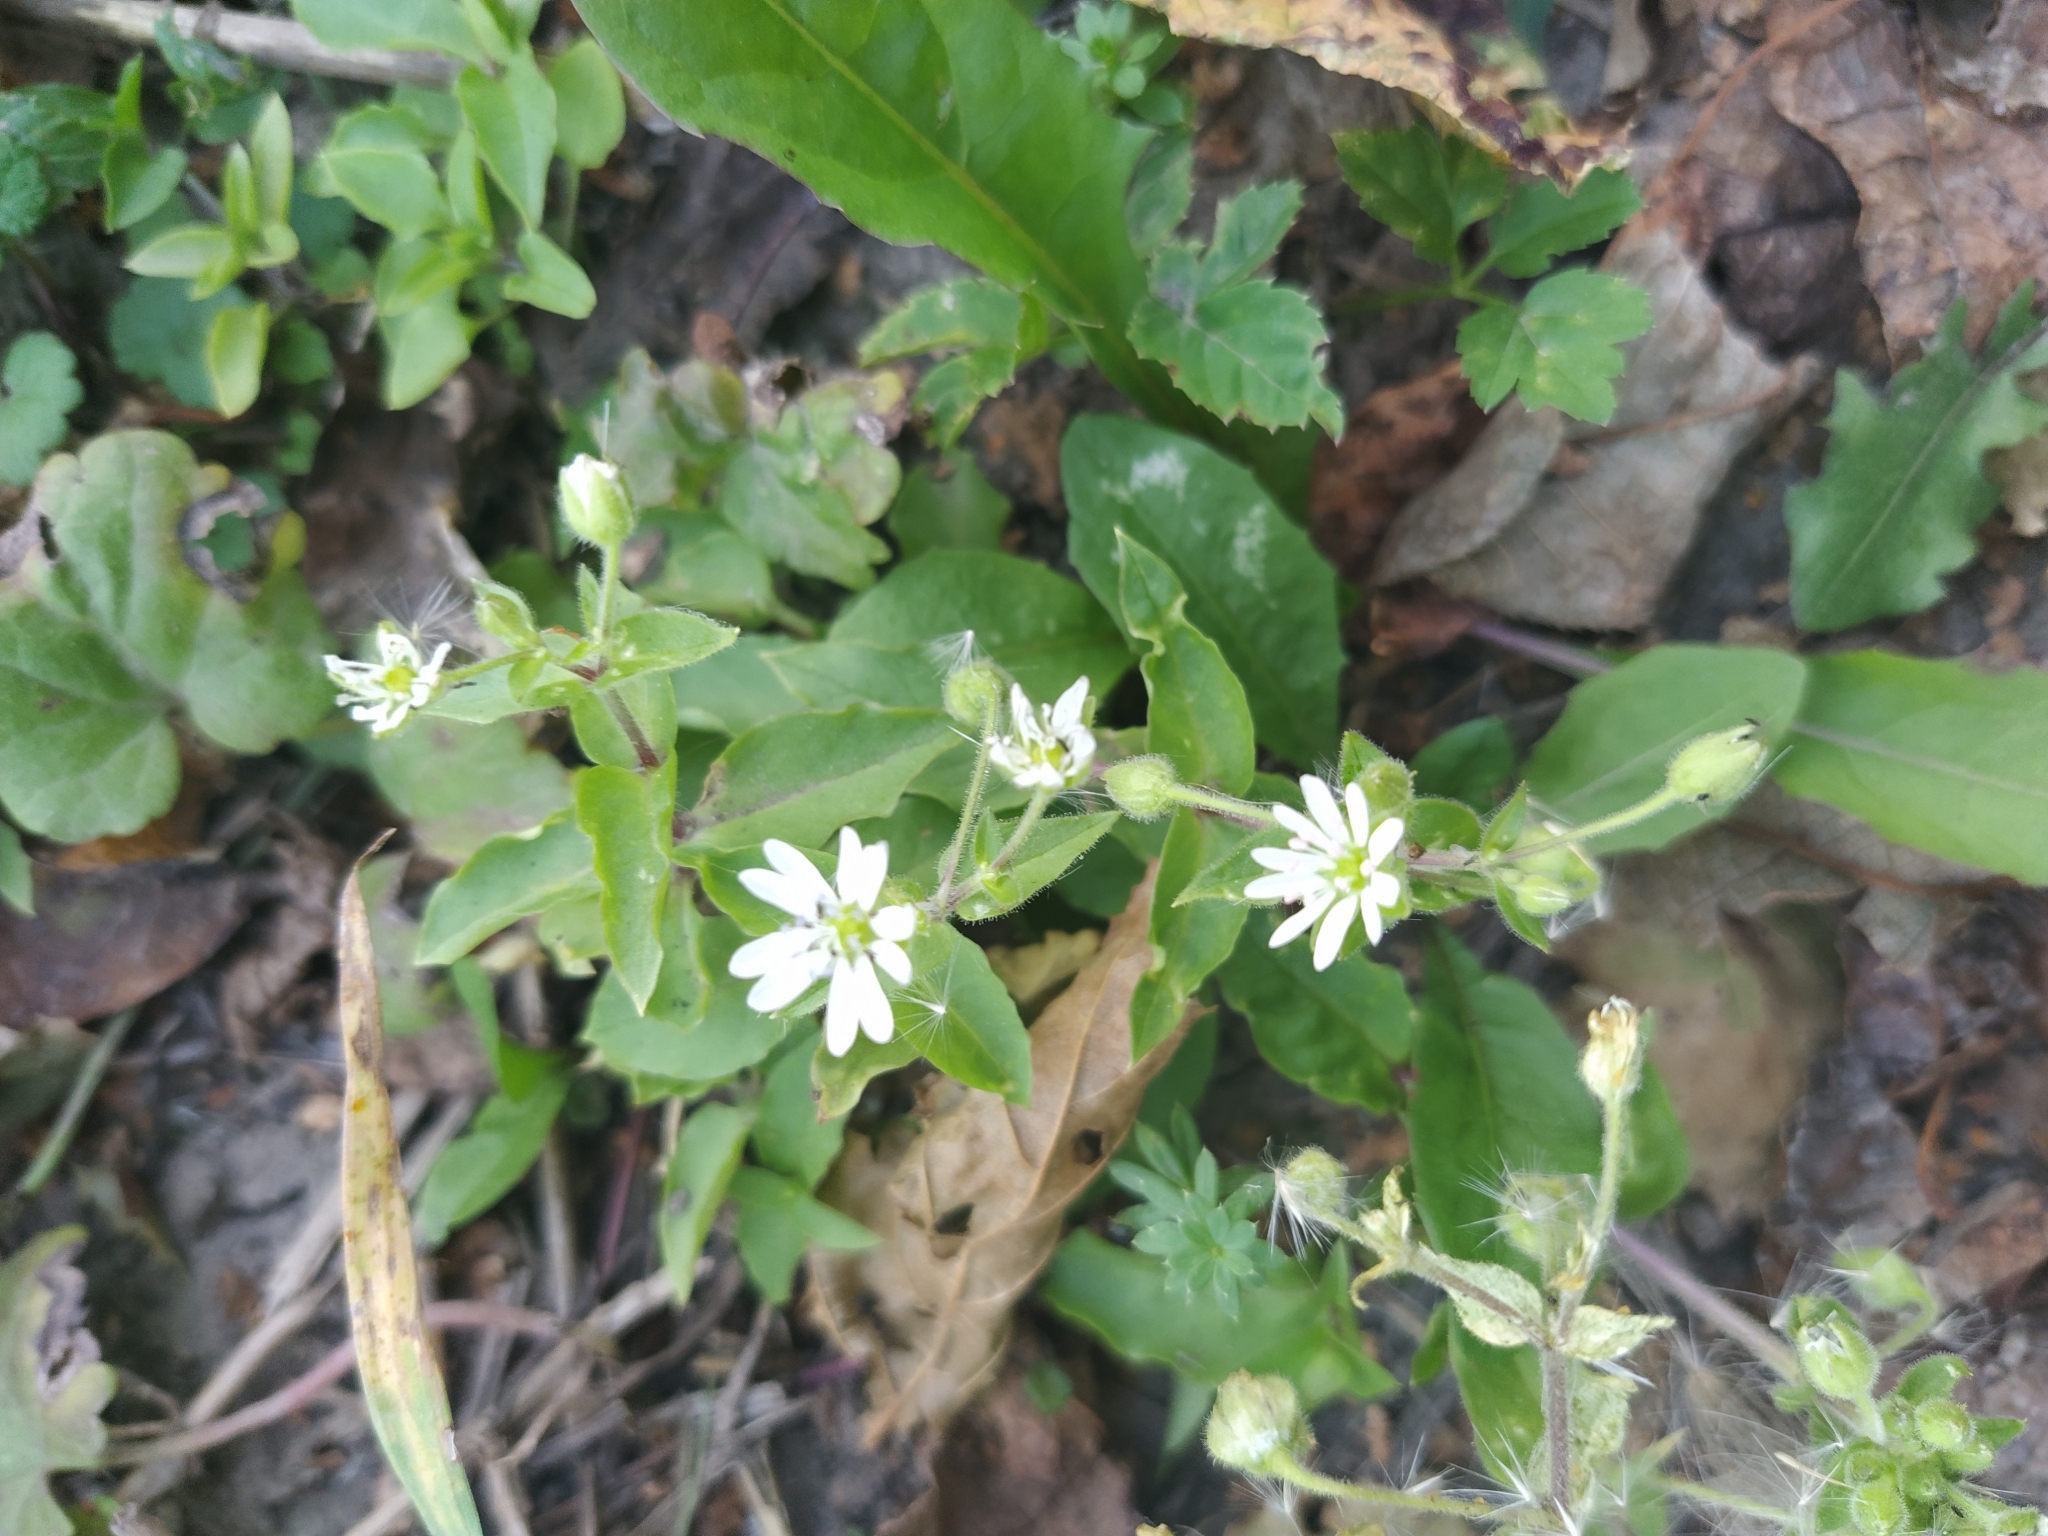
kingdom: Plantae
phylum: Tracheophyta
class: Magnoliopsida
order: Caryophyllales
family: Caryophyllaceae
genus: Stellaria
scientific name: Stellaria aquatica
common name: Water chickweed
